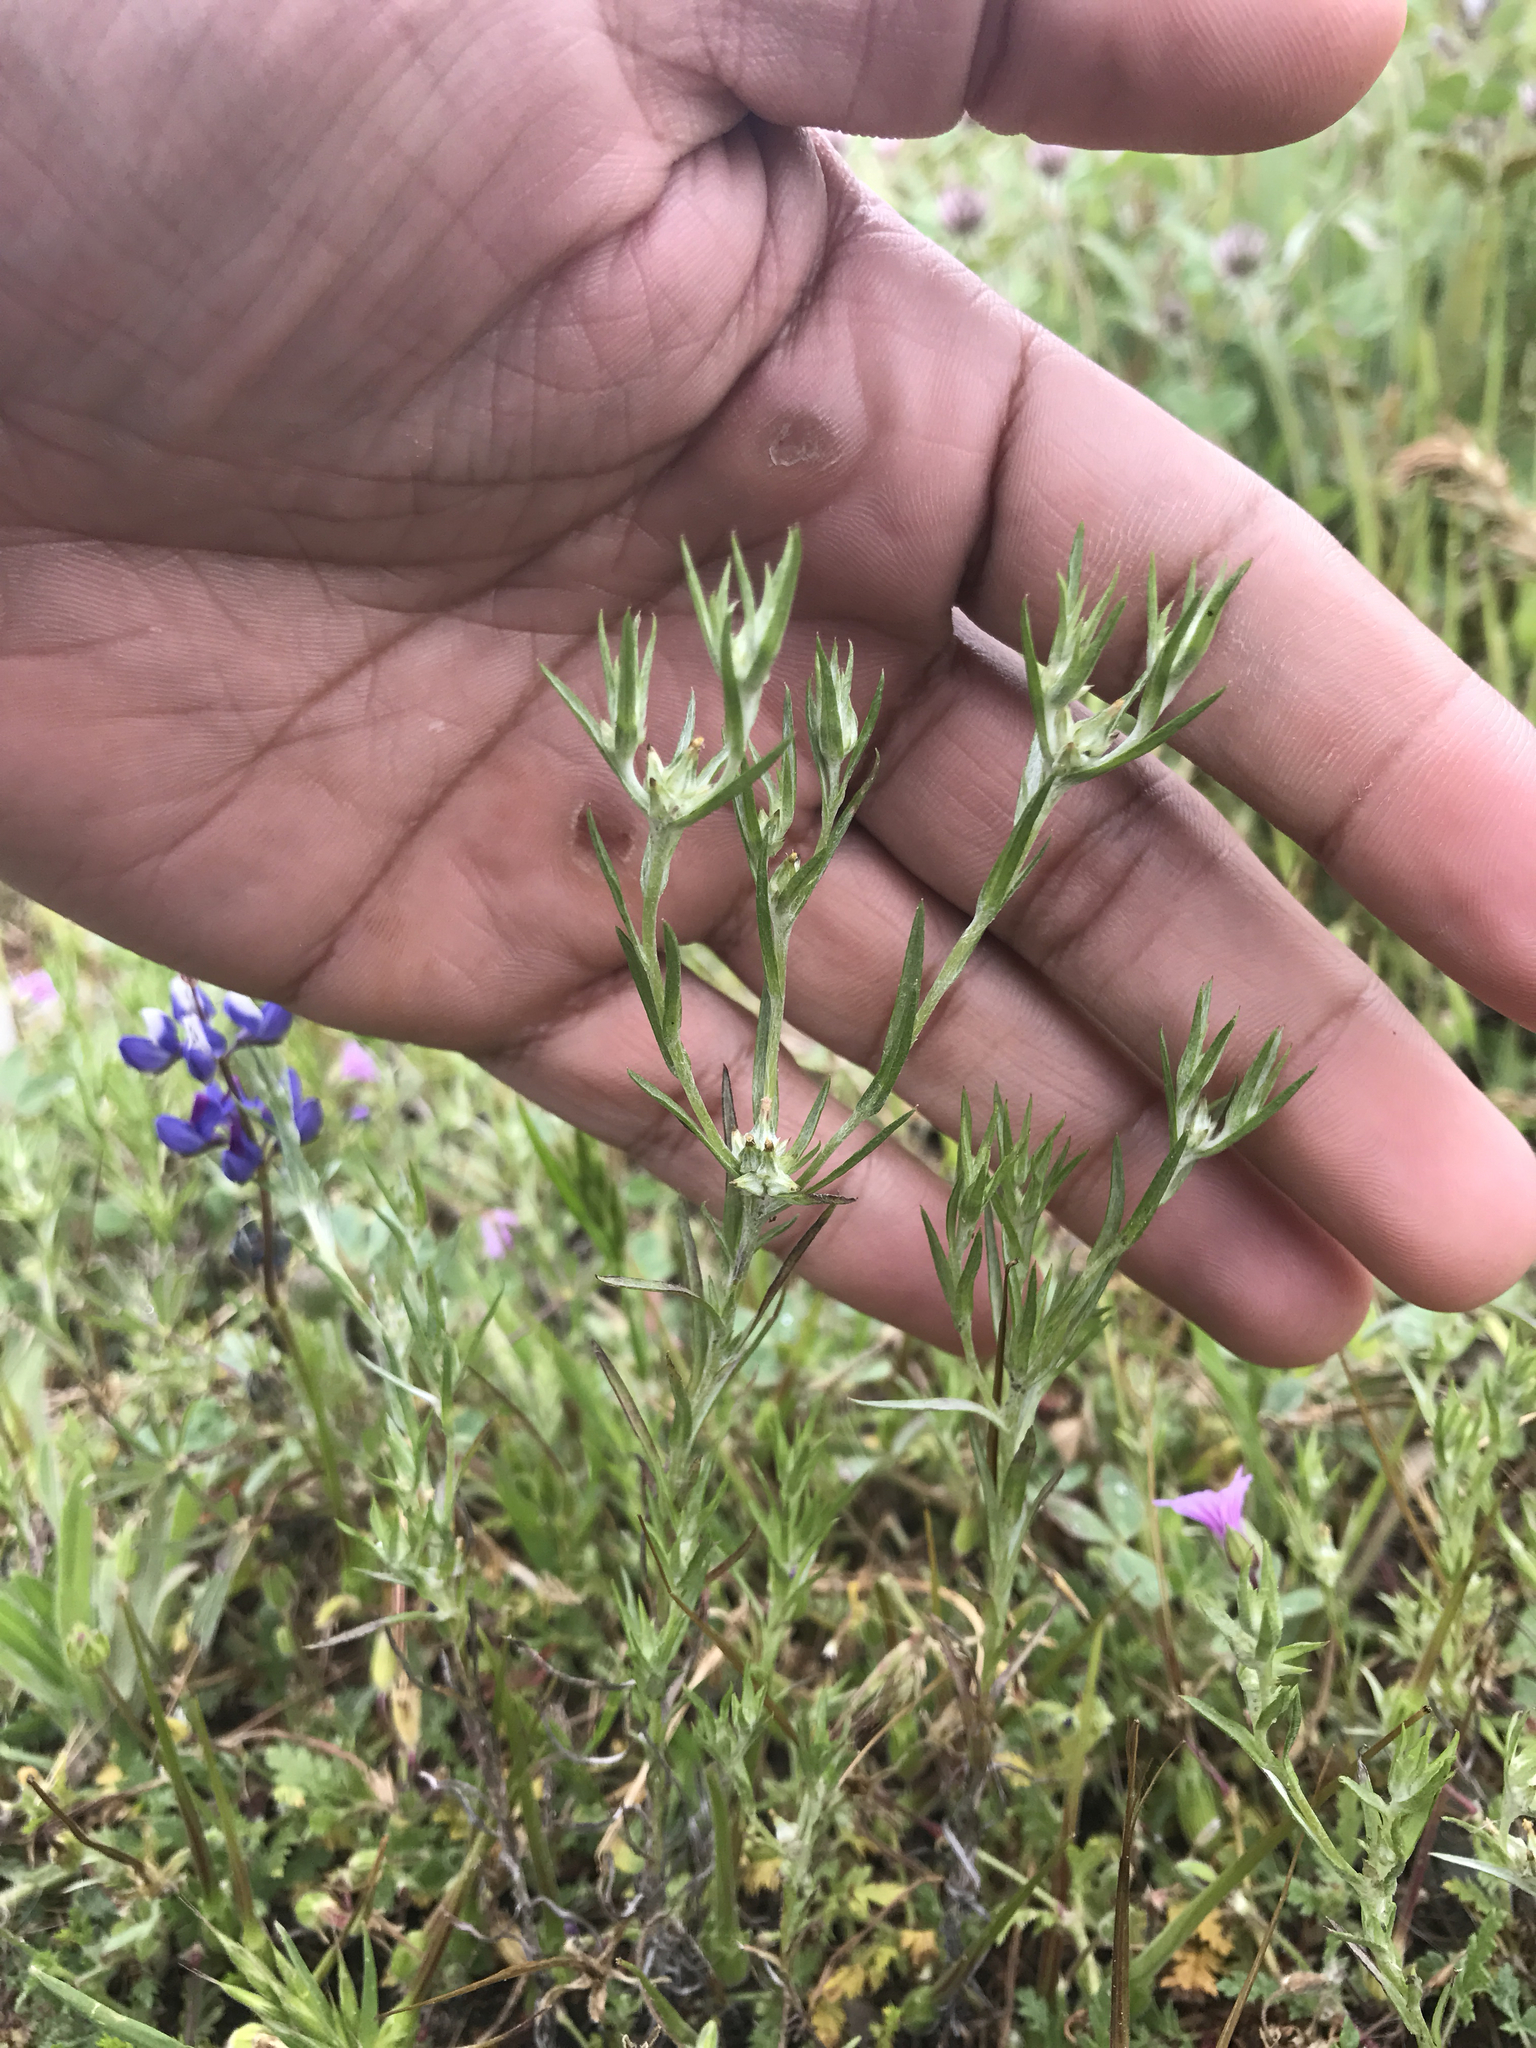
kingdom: Plantae
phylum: Tracheophyta
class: Magnoliopsida
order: Asterales
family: Asteraceae
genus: Logfia
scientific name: Logfia gallica
